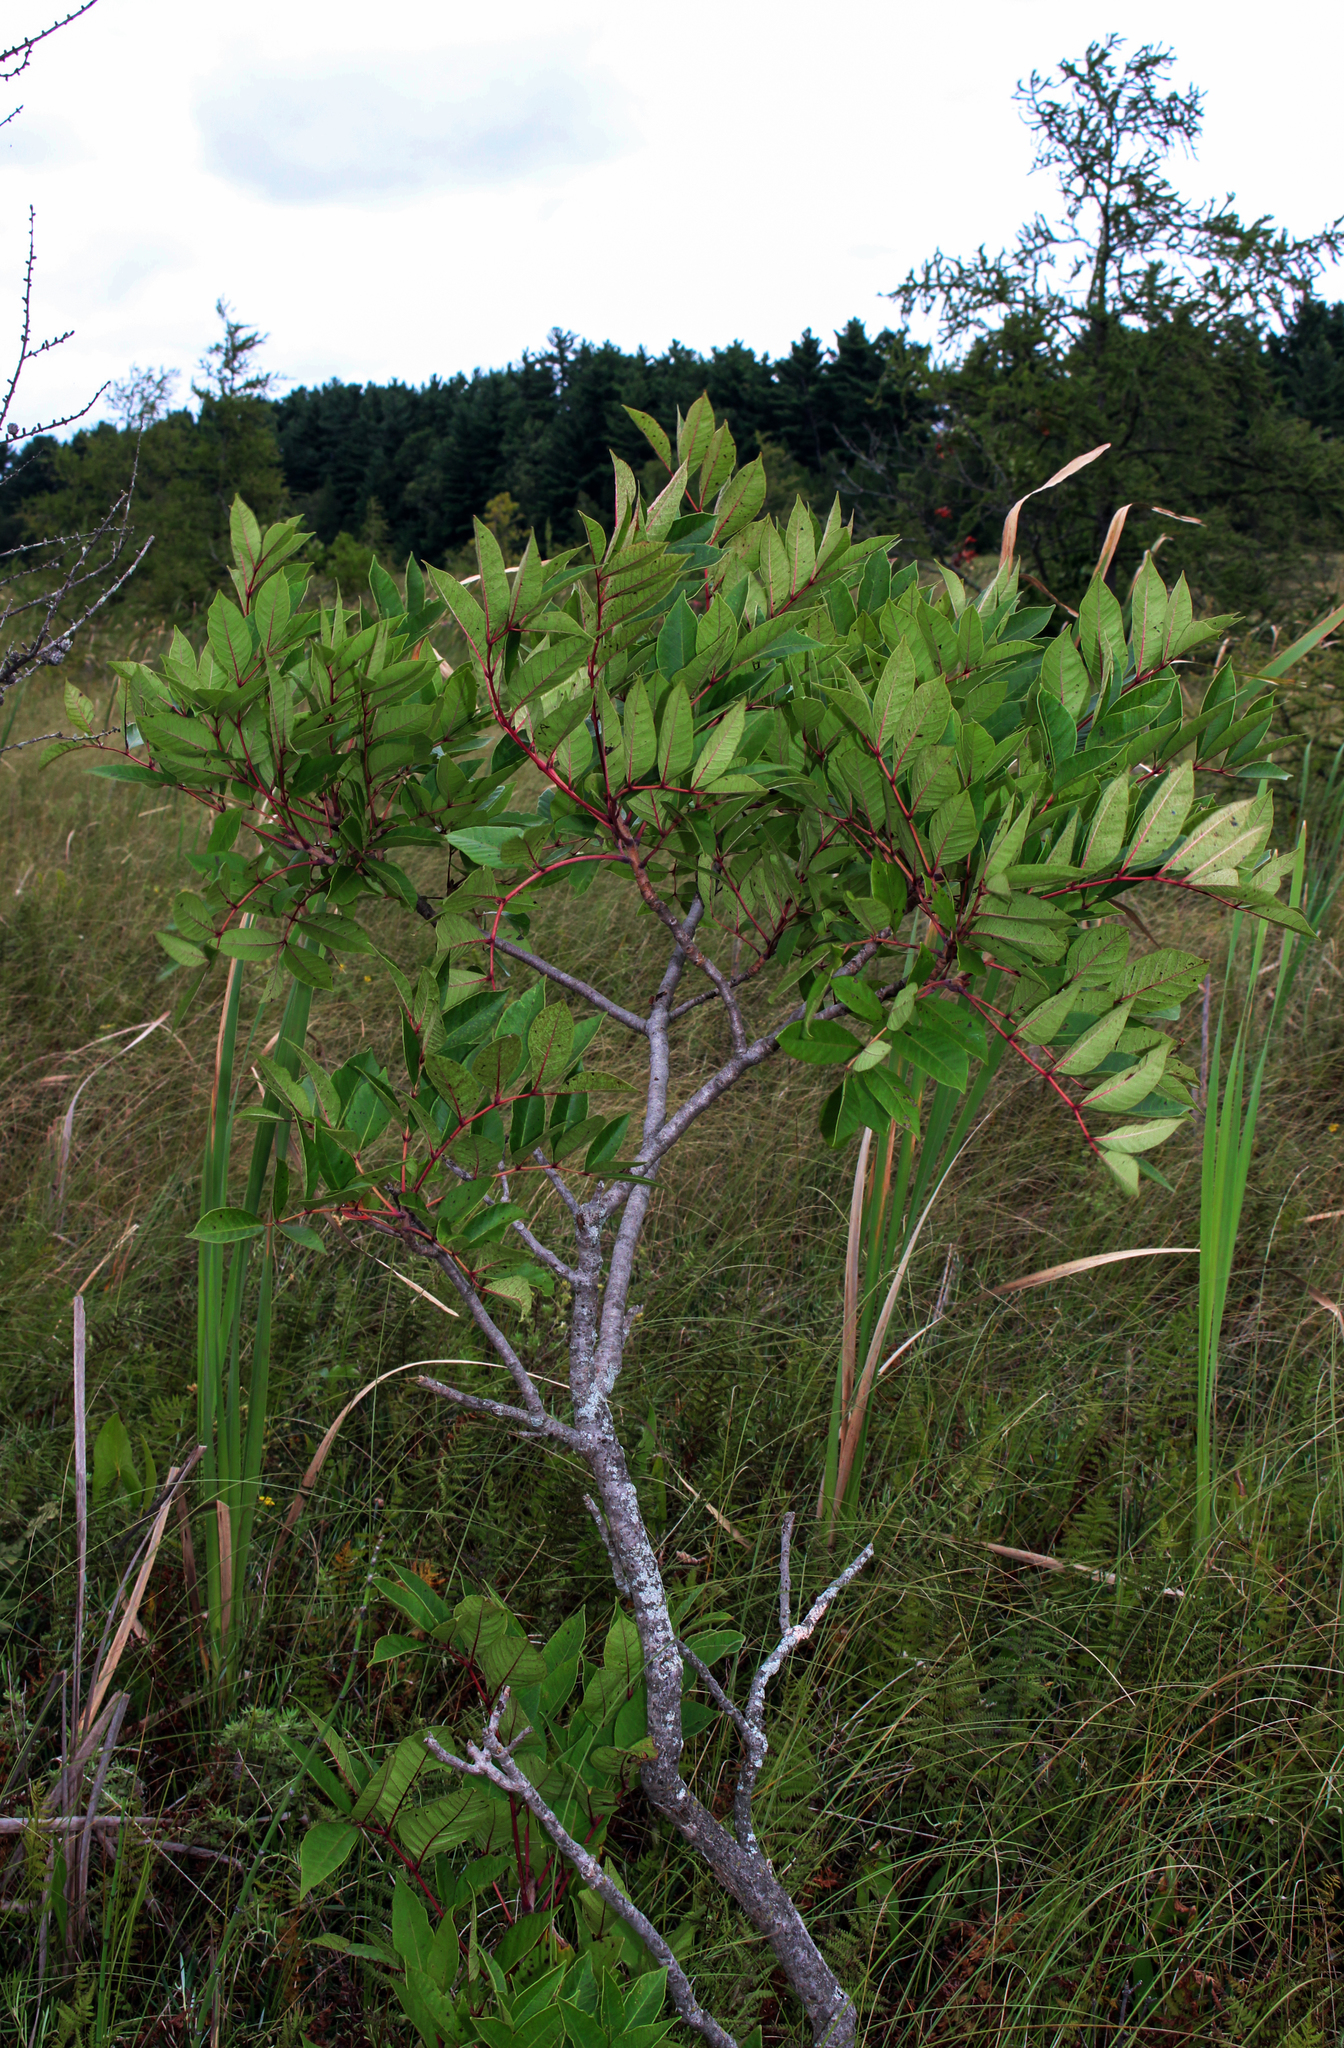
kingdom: Plantae
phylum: Tracheophyta
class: Magnoliopsida
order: Sapindales
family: Anacardiaceae
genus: Toxicodendron
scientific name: Toxicodendron vernix
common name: Poison sumac
